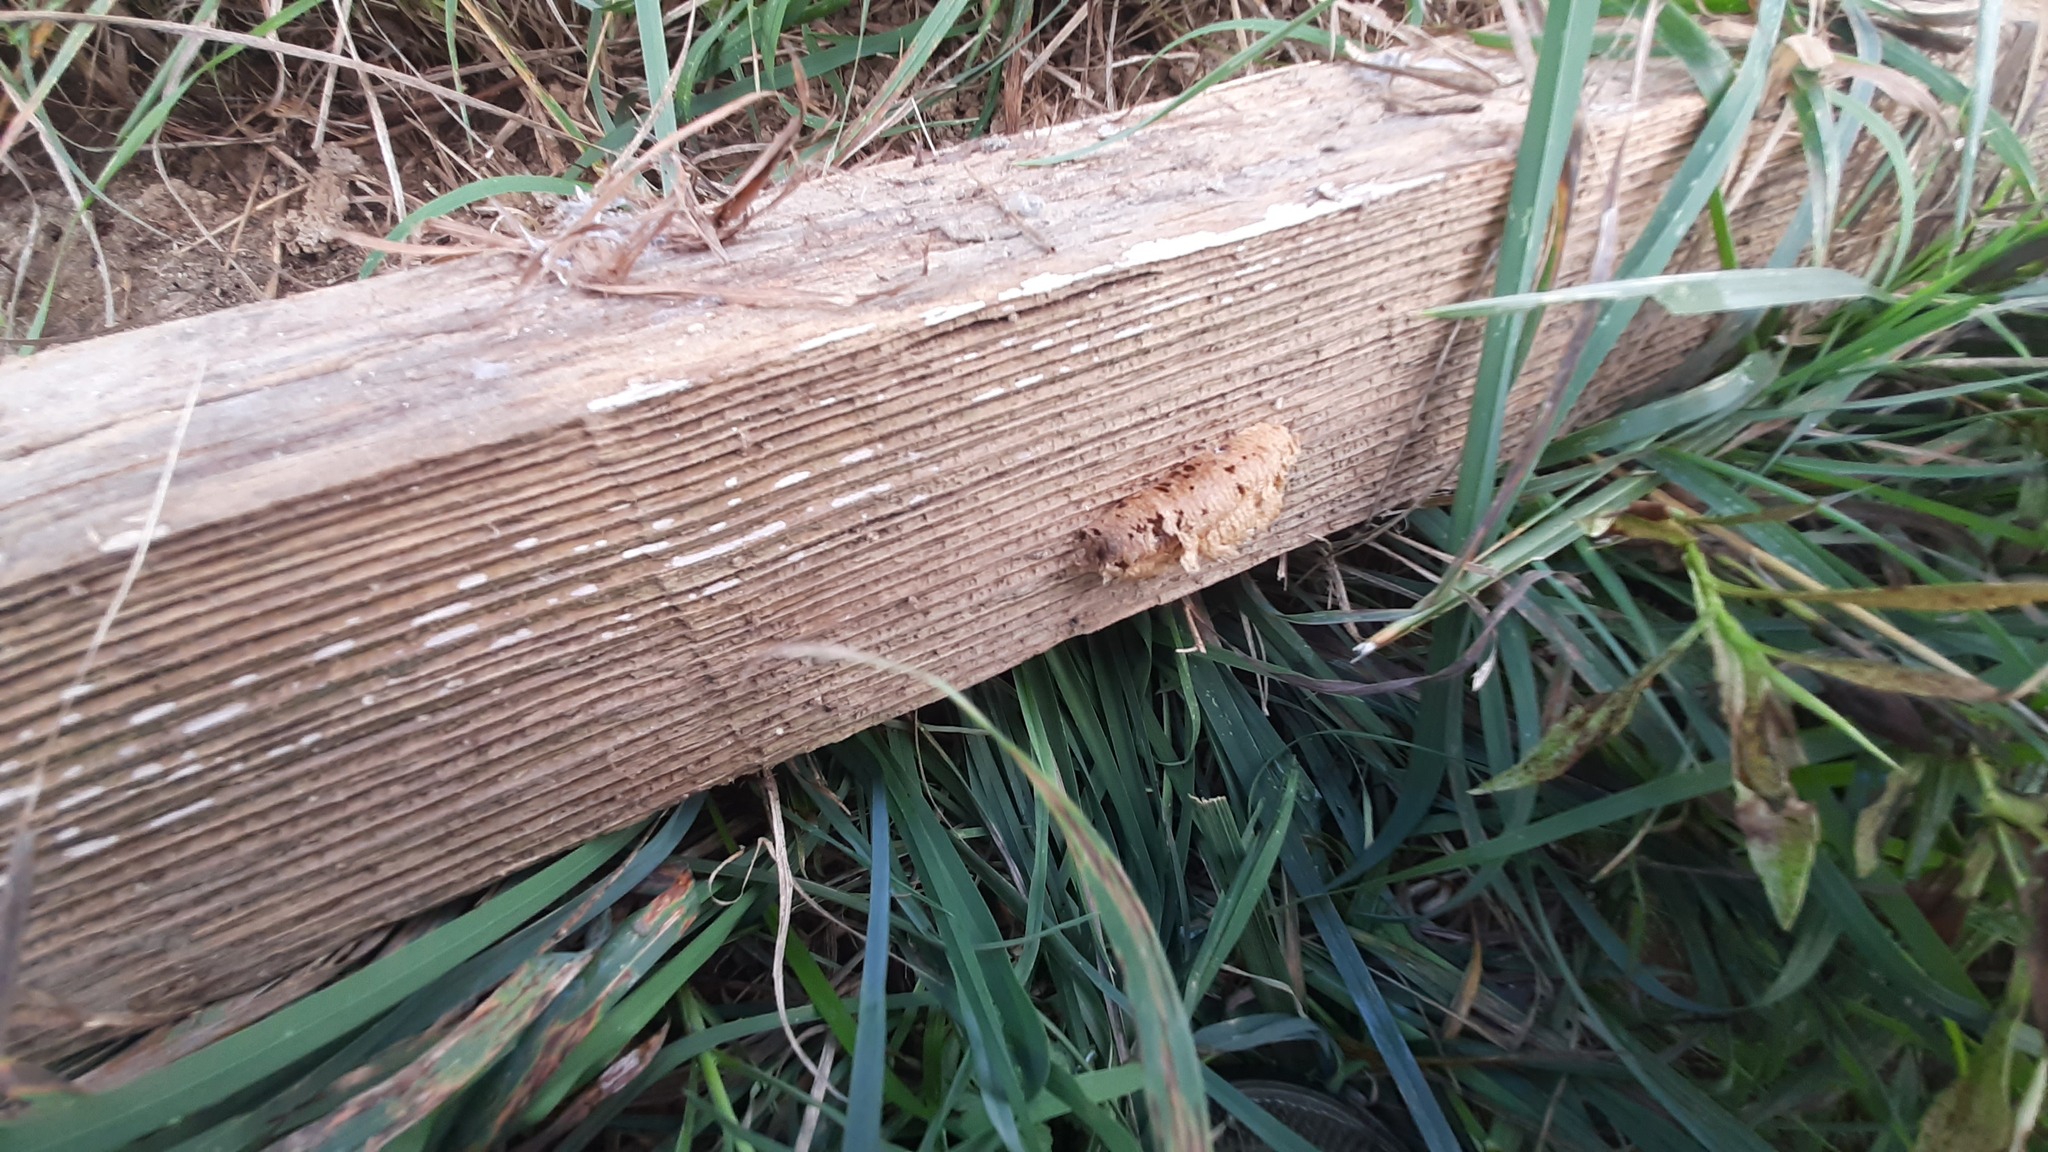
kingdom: Animalia
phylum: Arthropoda
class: Insecta
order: Mantodea
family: Mantidae
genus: Mantis
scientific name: Mantis religiosa
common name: Praying mantis
